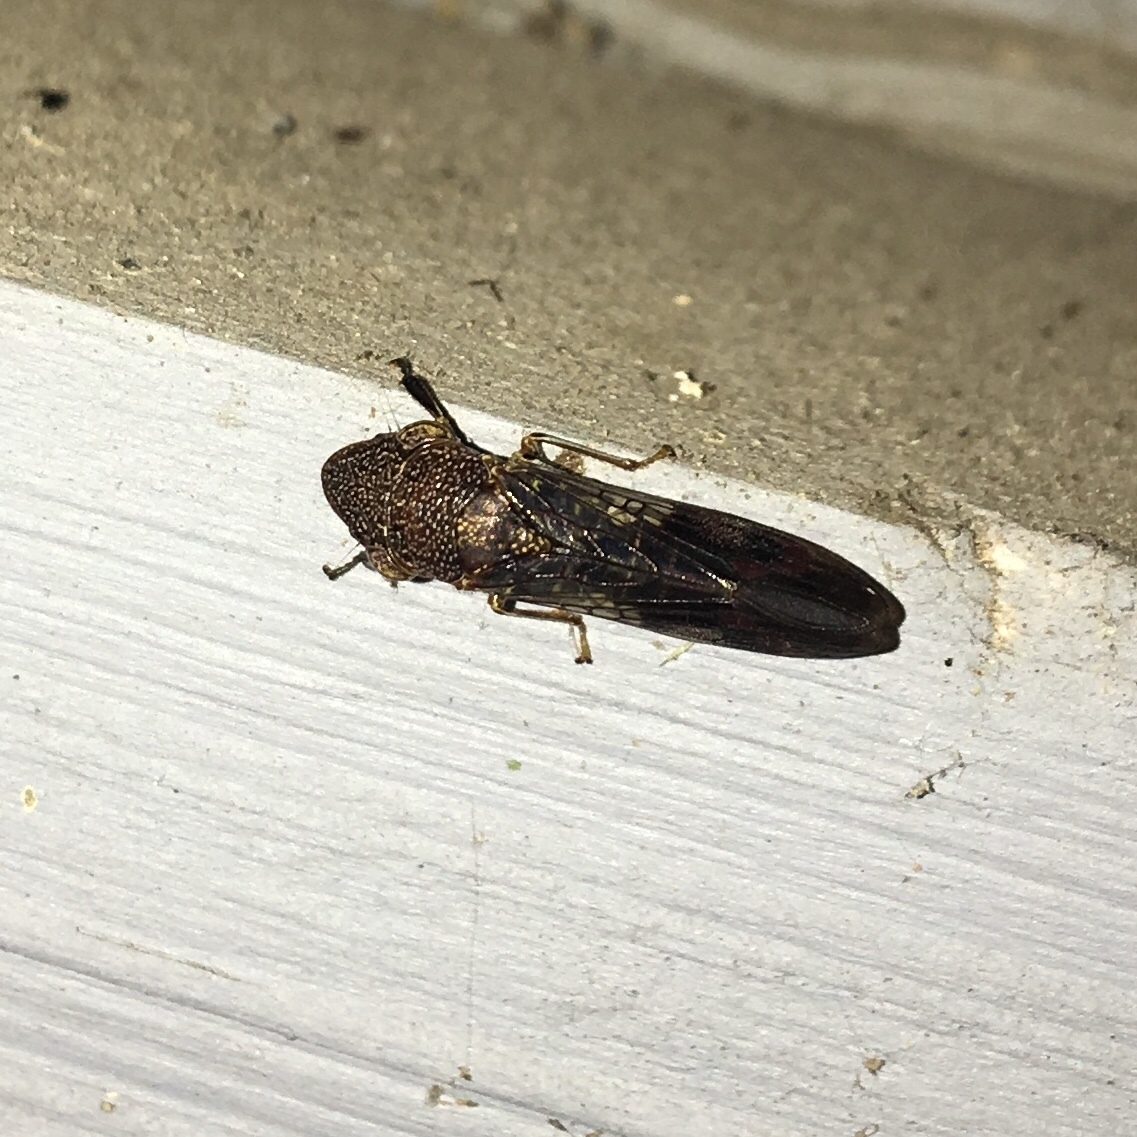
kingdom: Animalia
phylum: Arthropoda
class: Insecta
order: Hemiptera
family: Cicadellidae
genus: Homalodisca
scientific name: Homalodisca vitripennis
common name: Glassy-winged sharpshooter
